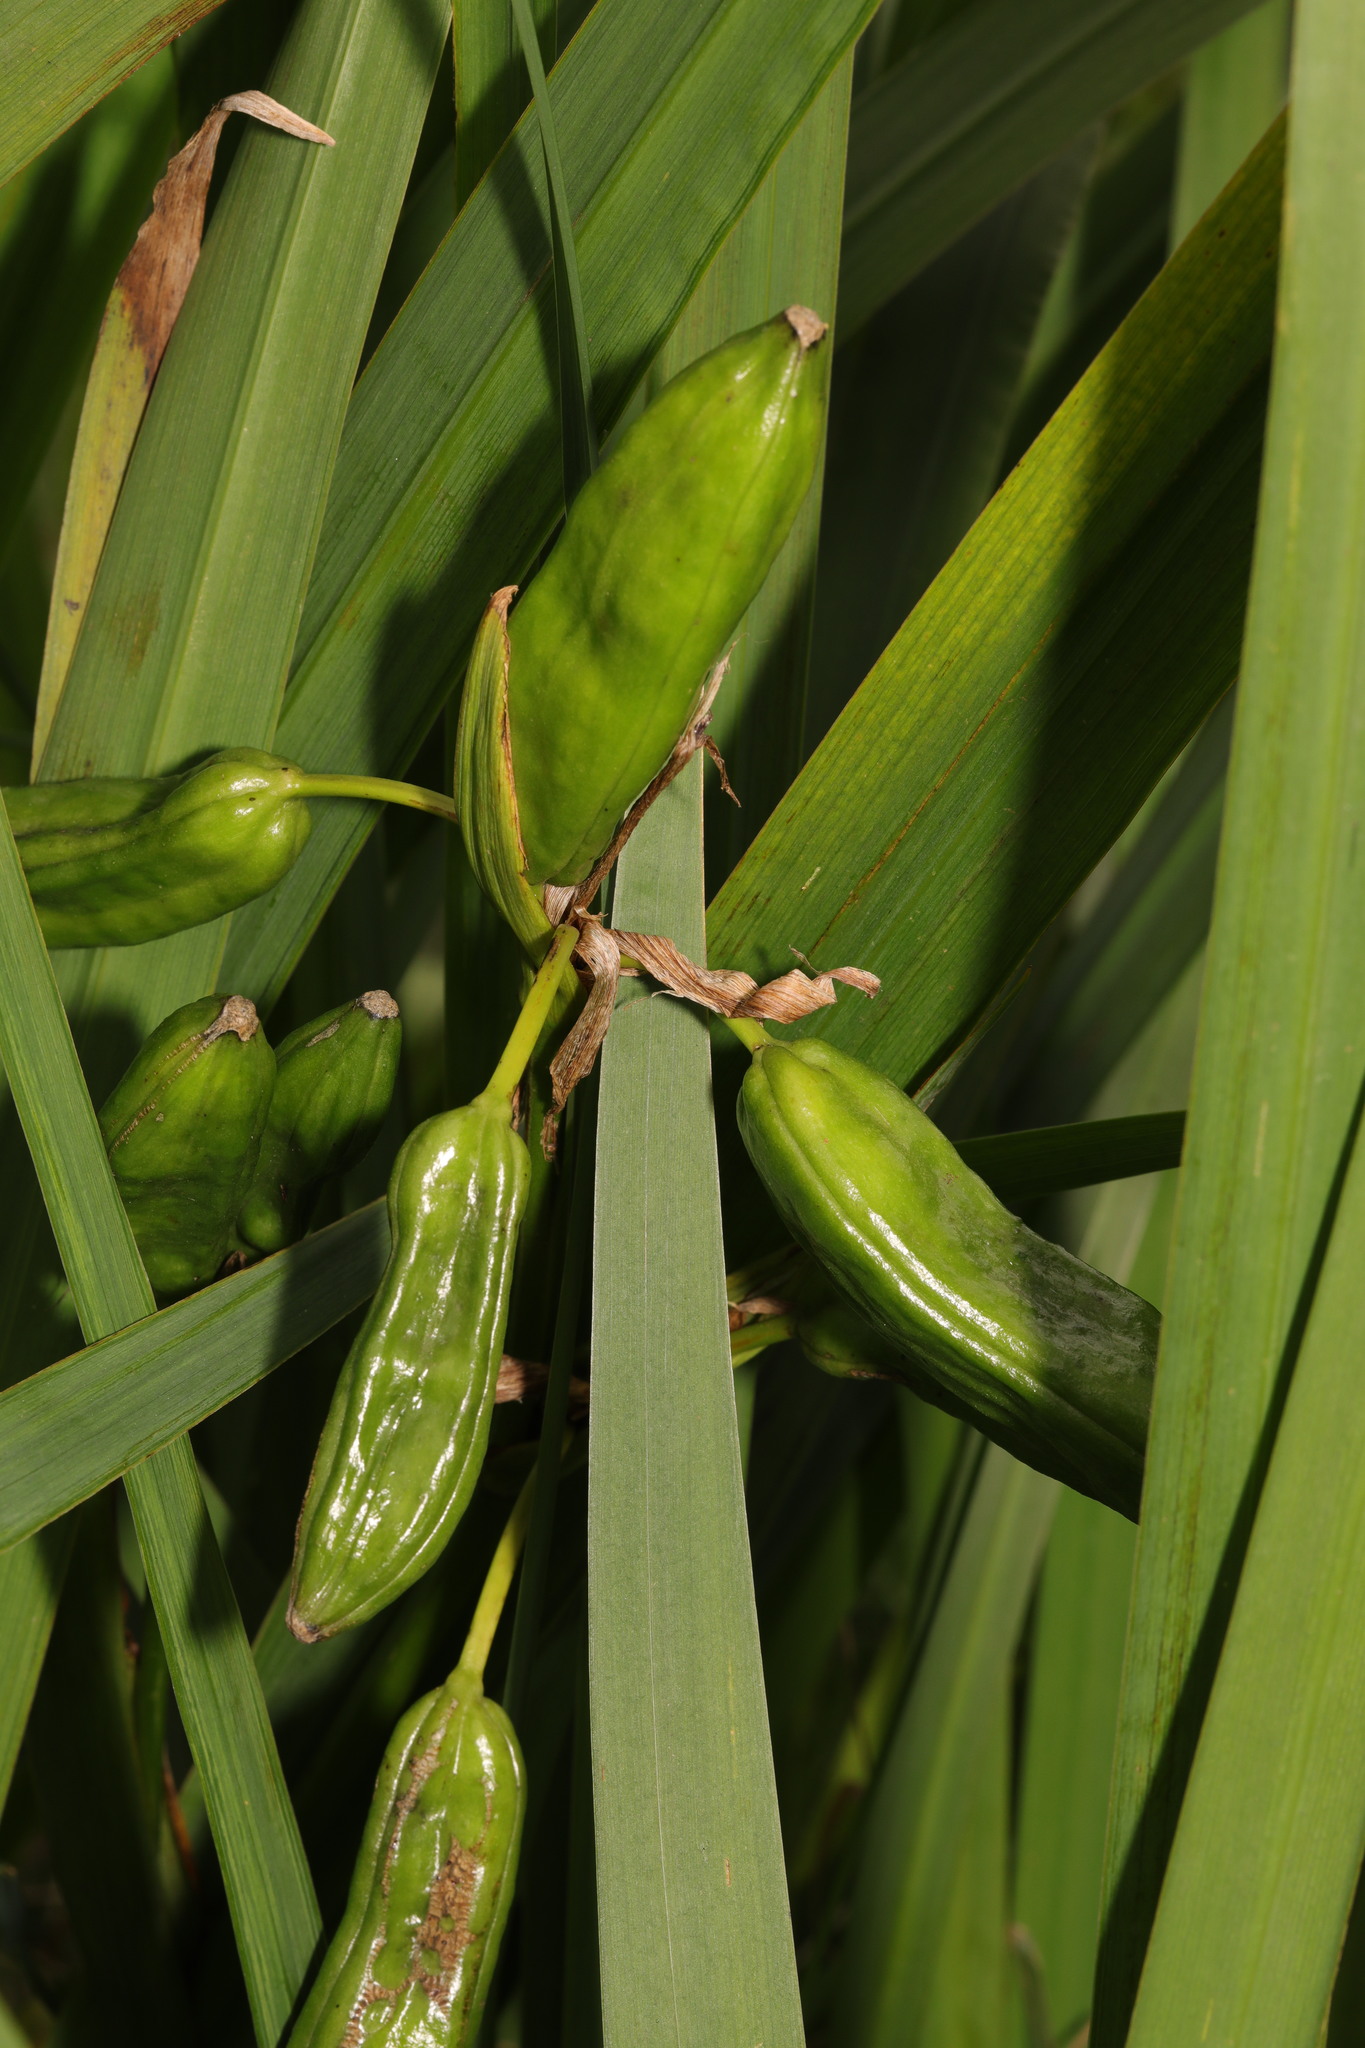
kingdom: Plantae
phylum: Tracheophyta
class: Liliopsida
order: Asparagales
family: Iridaceae
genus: Iris
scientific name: Iris pseudacorus
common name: Yellow flag
